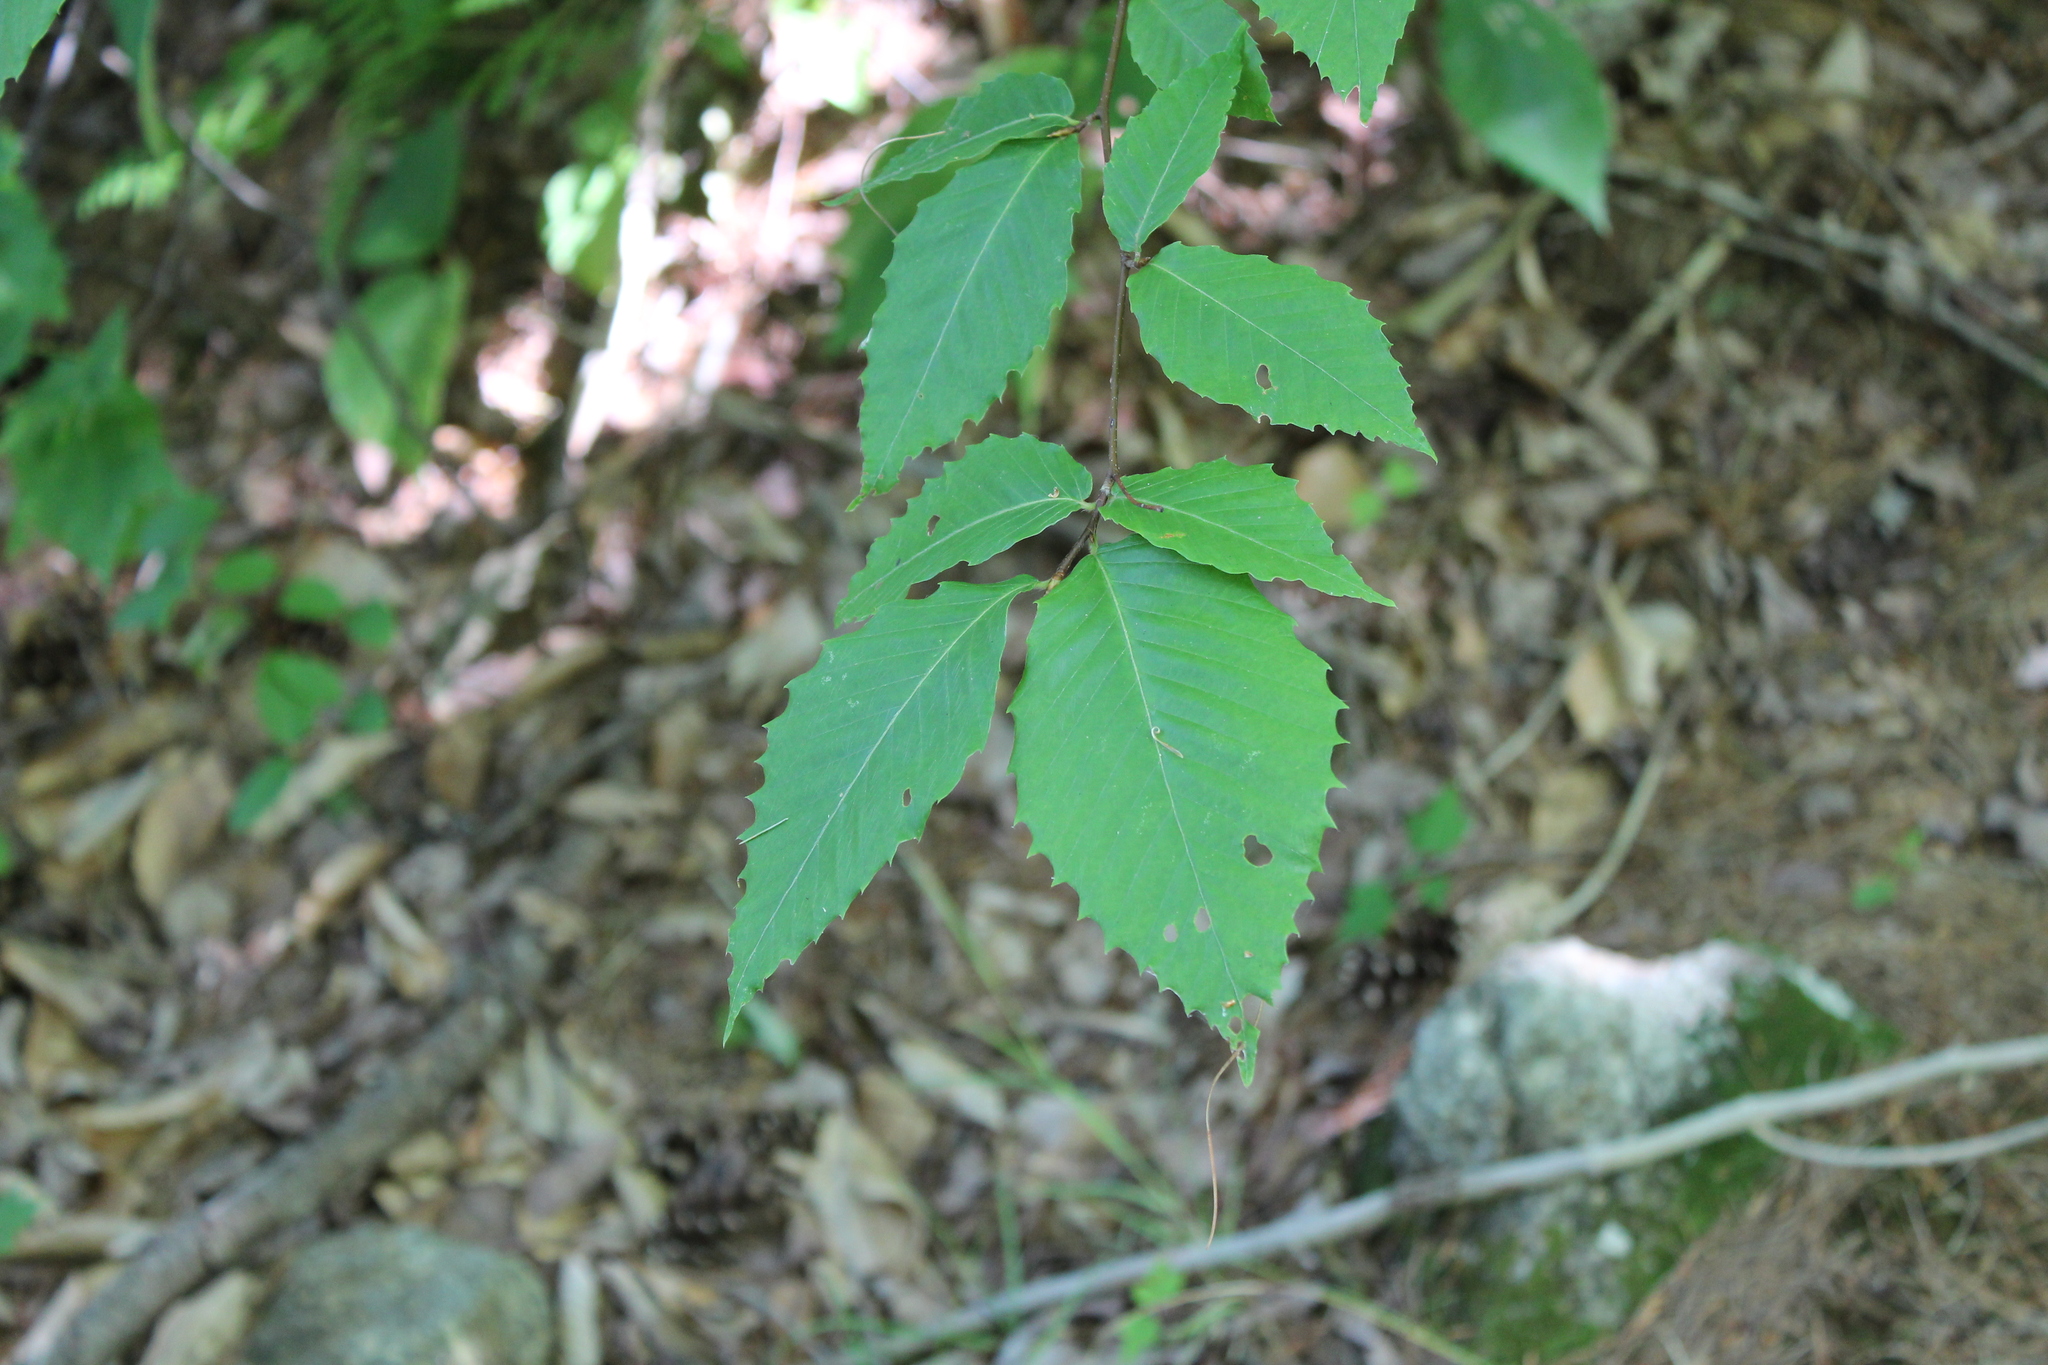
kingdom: Plantae
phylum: Tracheophyta
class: Magnoliopsida
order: Fagales
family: Fagaceae
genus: Fagus
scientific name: Fagus grandifolia
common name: American beech
